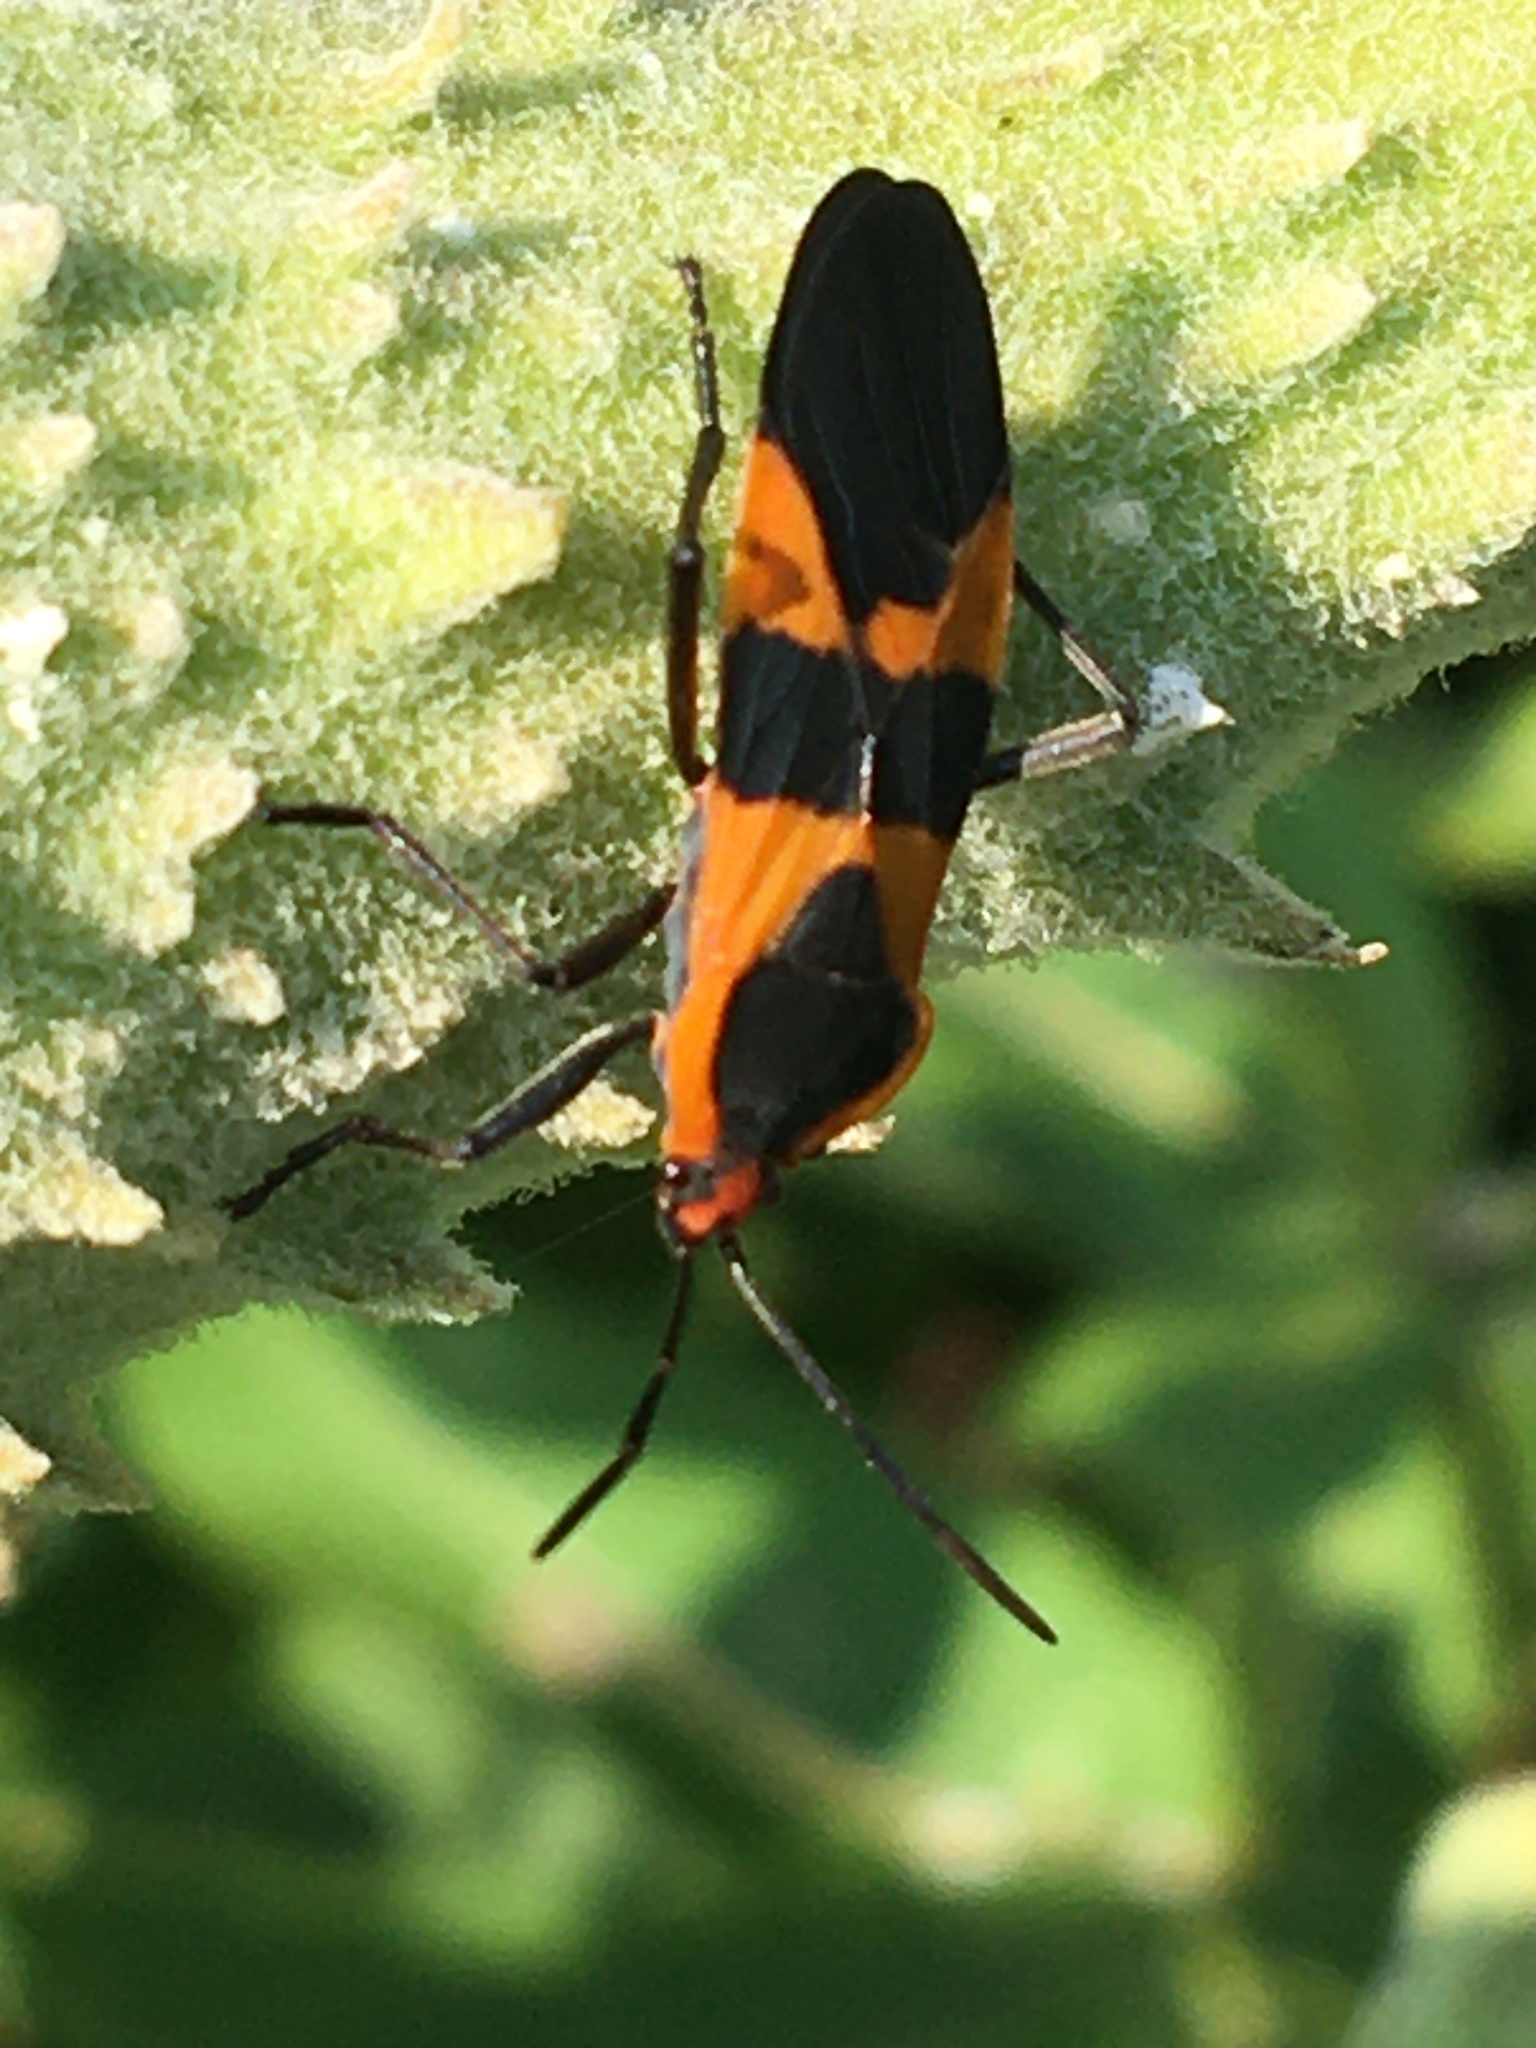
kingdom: Animalia
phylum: Arthropoda
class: Insecta
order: Hemiptera
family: Lygaeidae
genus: Oncopeltus
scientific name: Oncopeltus fasciatus
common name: Large milkweed bug
